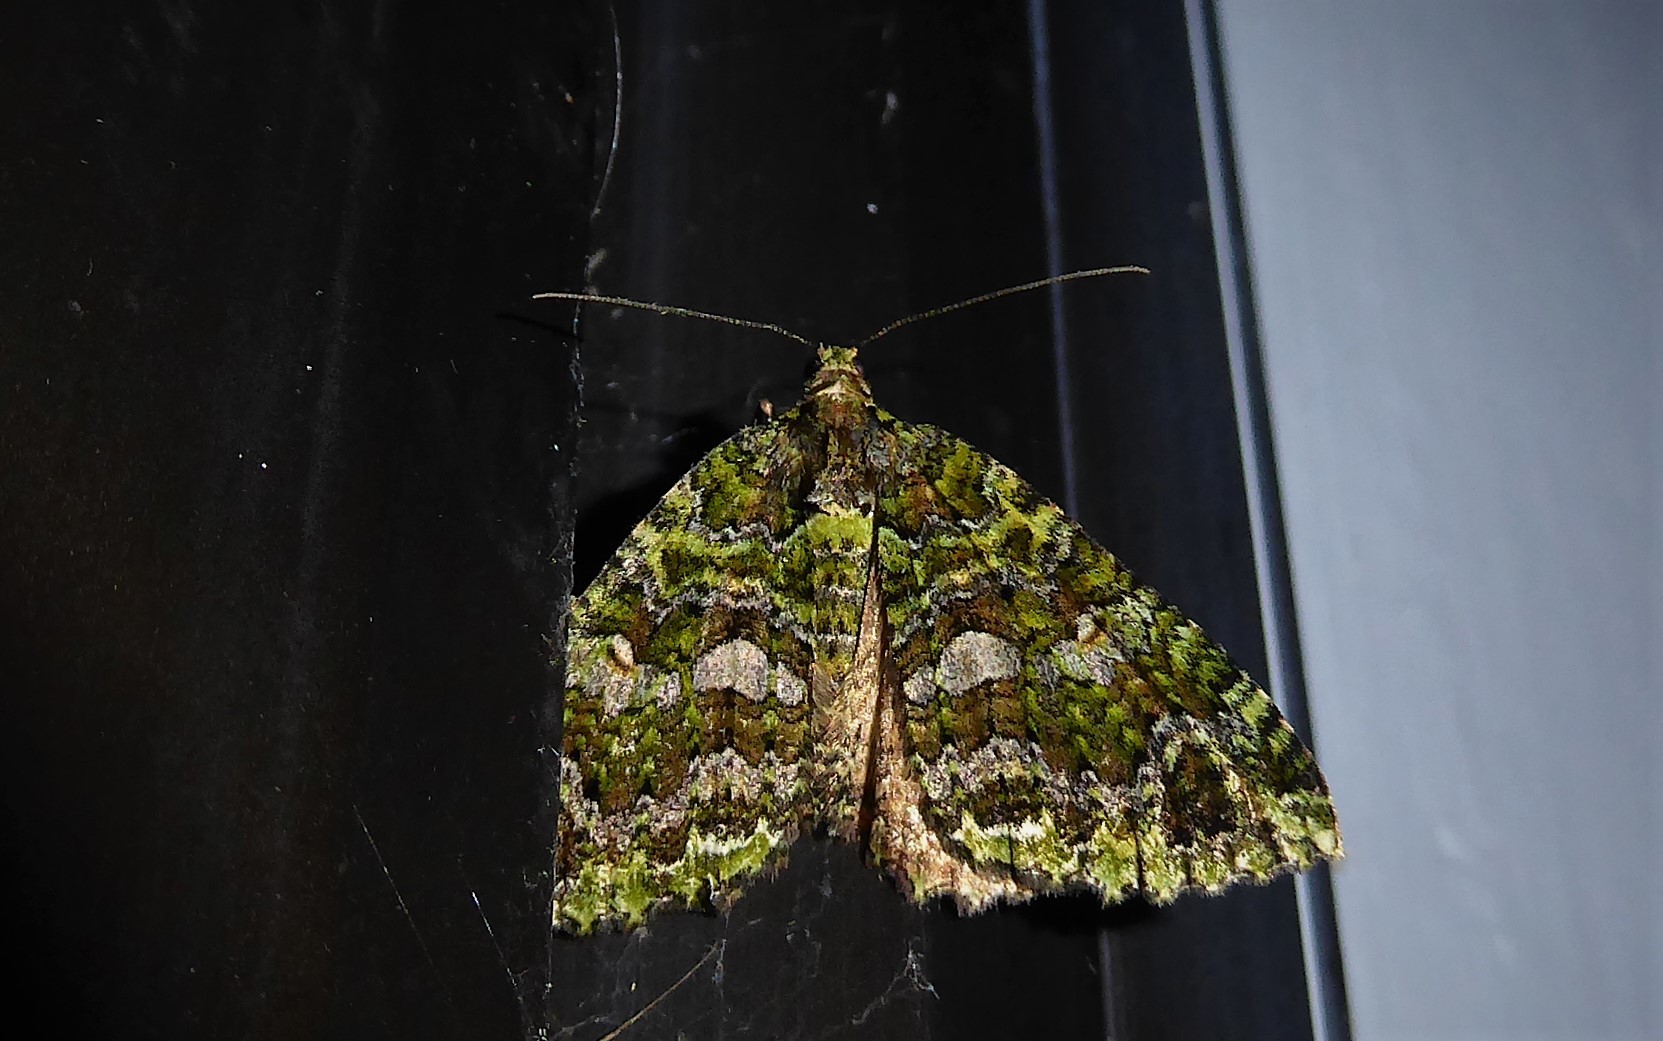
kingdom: Animalia
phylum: Arthropoda
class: Insecta
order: Lepidoptera
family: Geometridae
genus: Austrocidaria
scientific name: Austrocidaria similata
